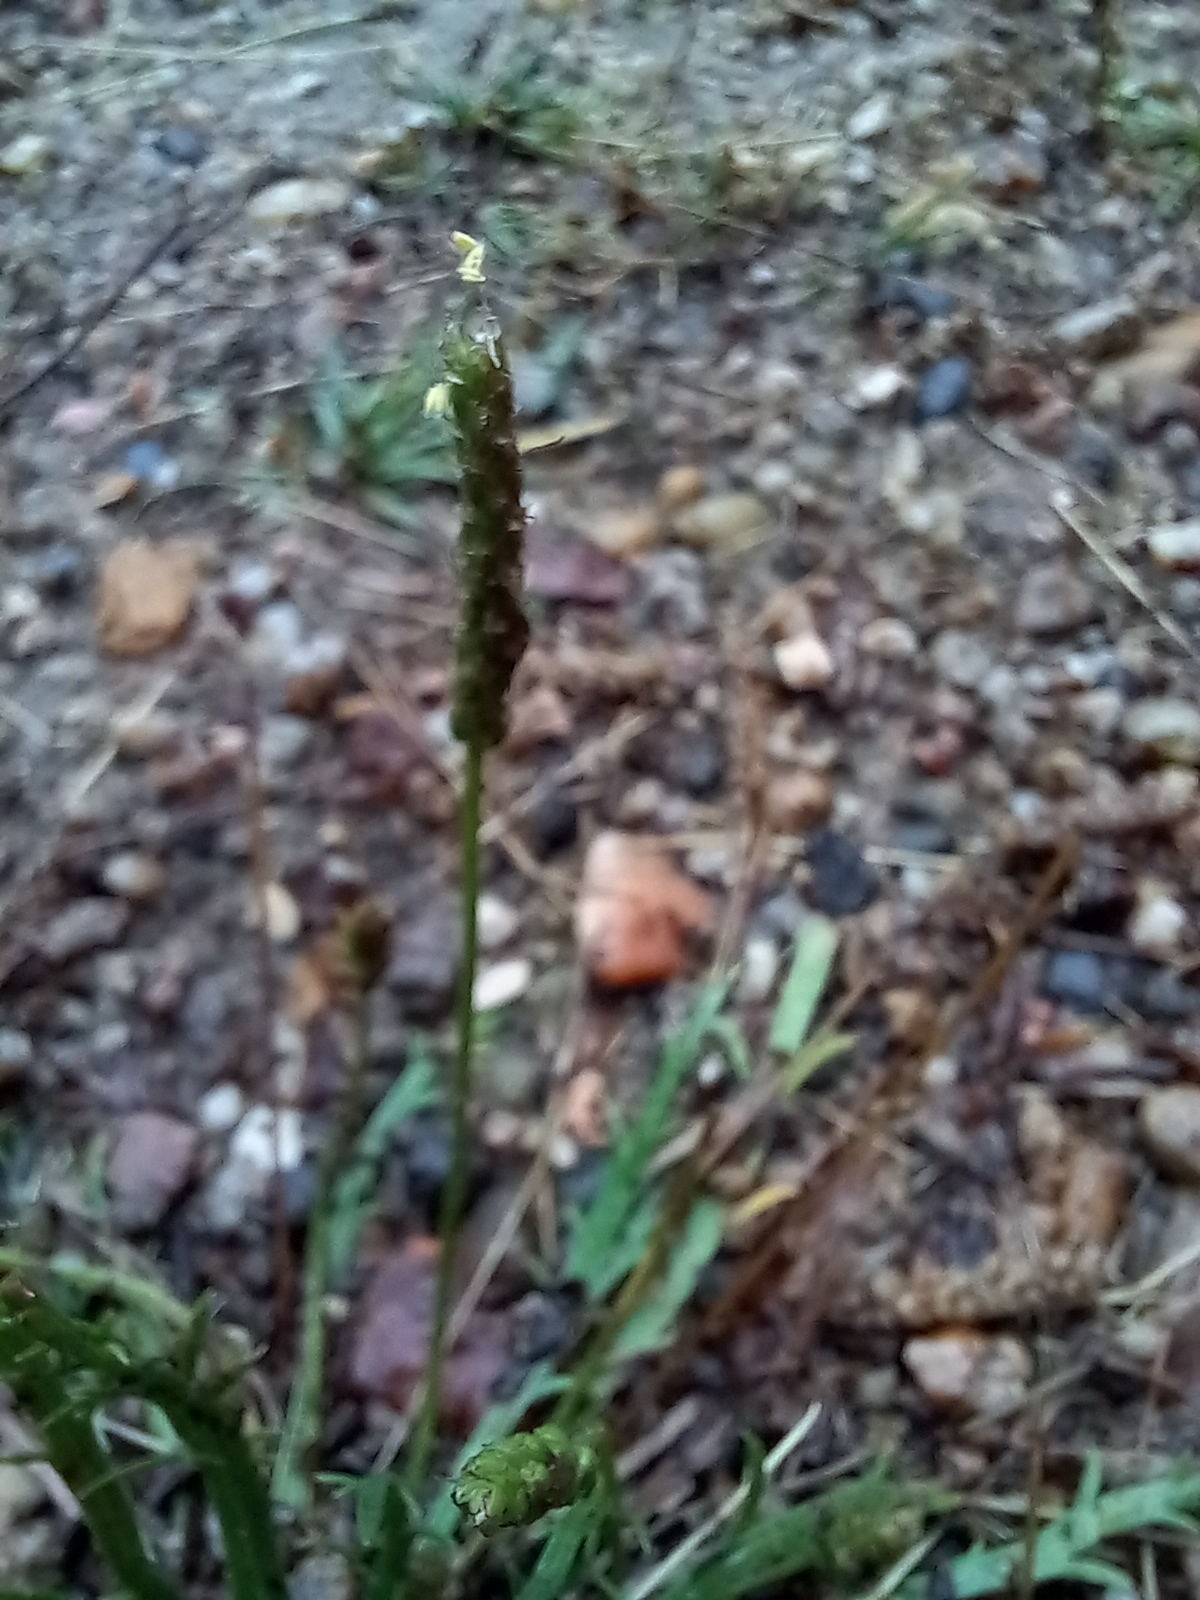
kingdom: Plantae
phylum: Tracheophyta
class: Magnoliopsida
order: Lamiales
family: Plantaginaceae
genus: Plantago
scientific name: Plantago coronopus
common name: Buck's-horn plantain
